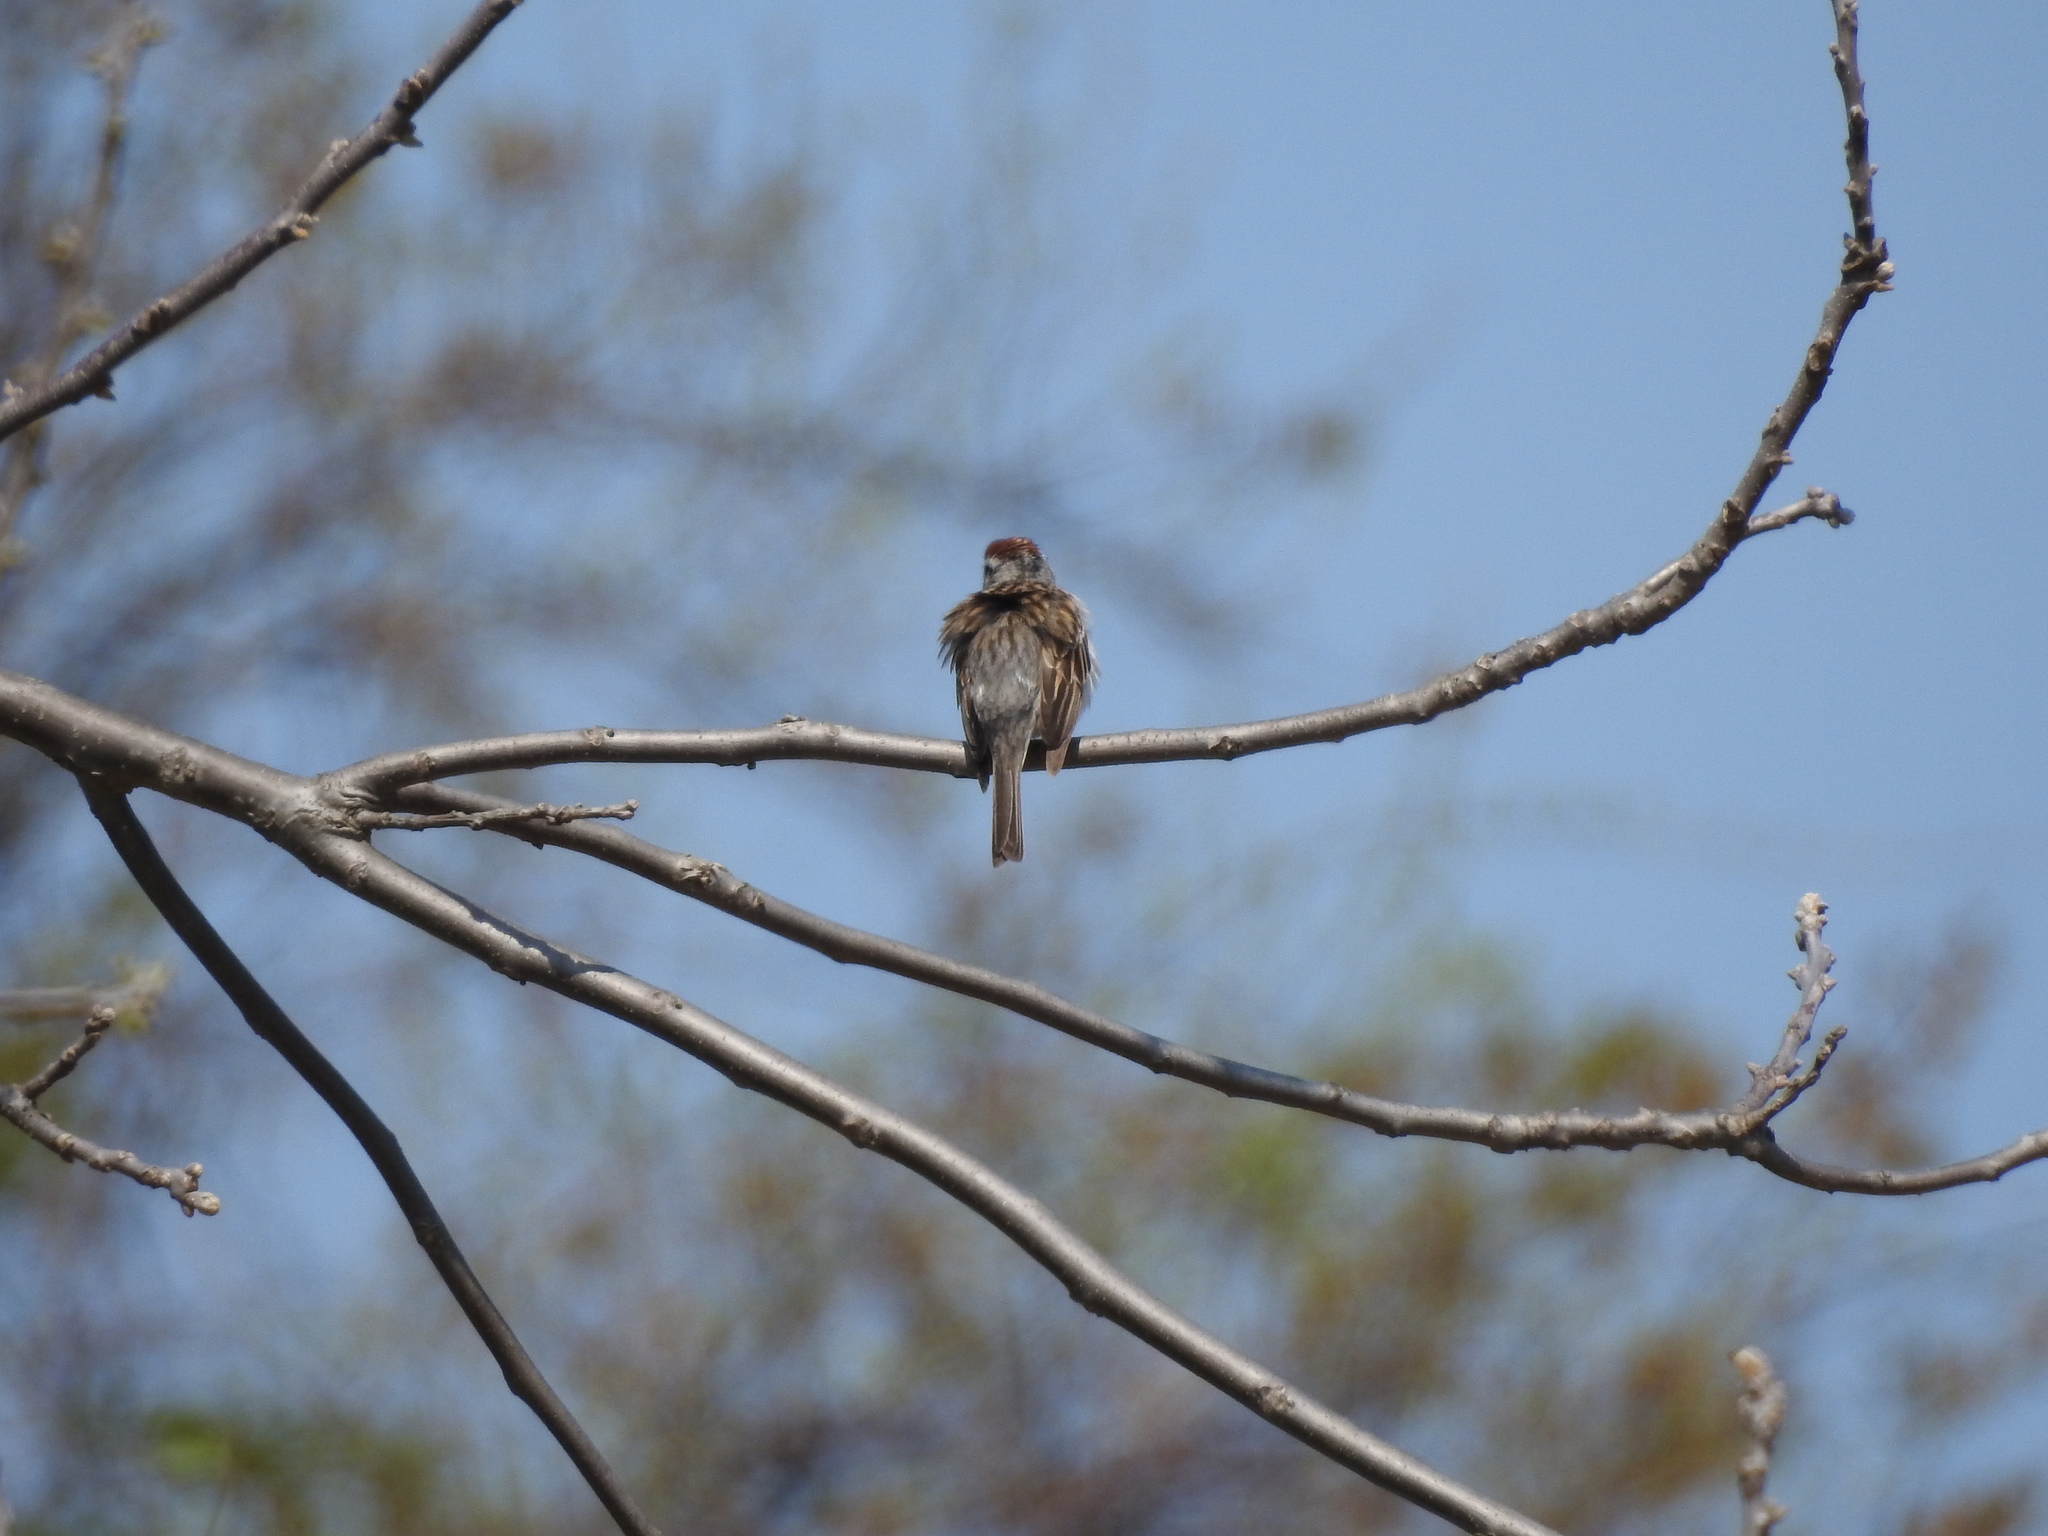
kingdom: Animalia
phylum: Chordata
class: Aves
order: Passeriformes
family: Passerellidae
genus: Spizella
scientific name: Spizella passerina
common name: Chipping sparrow
